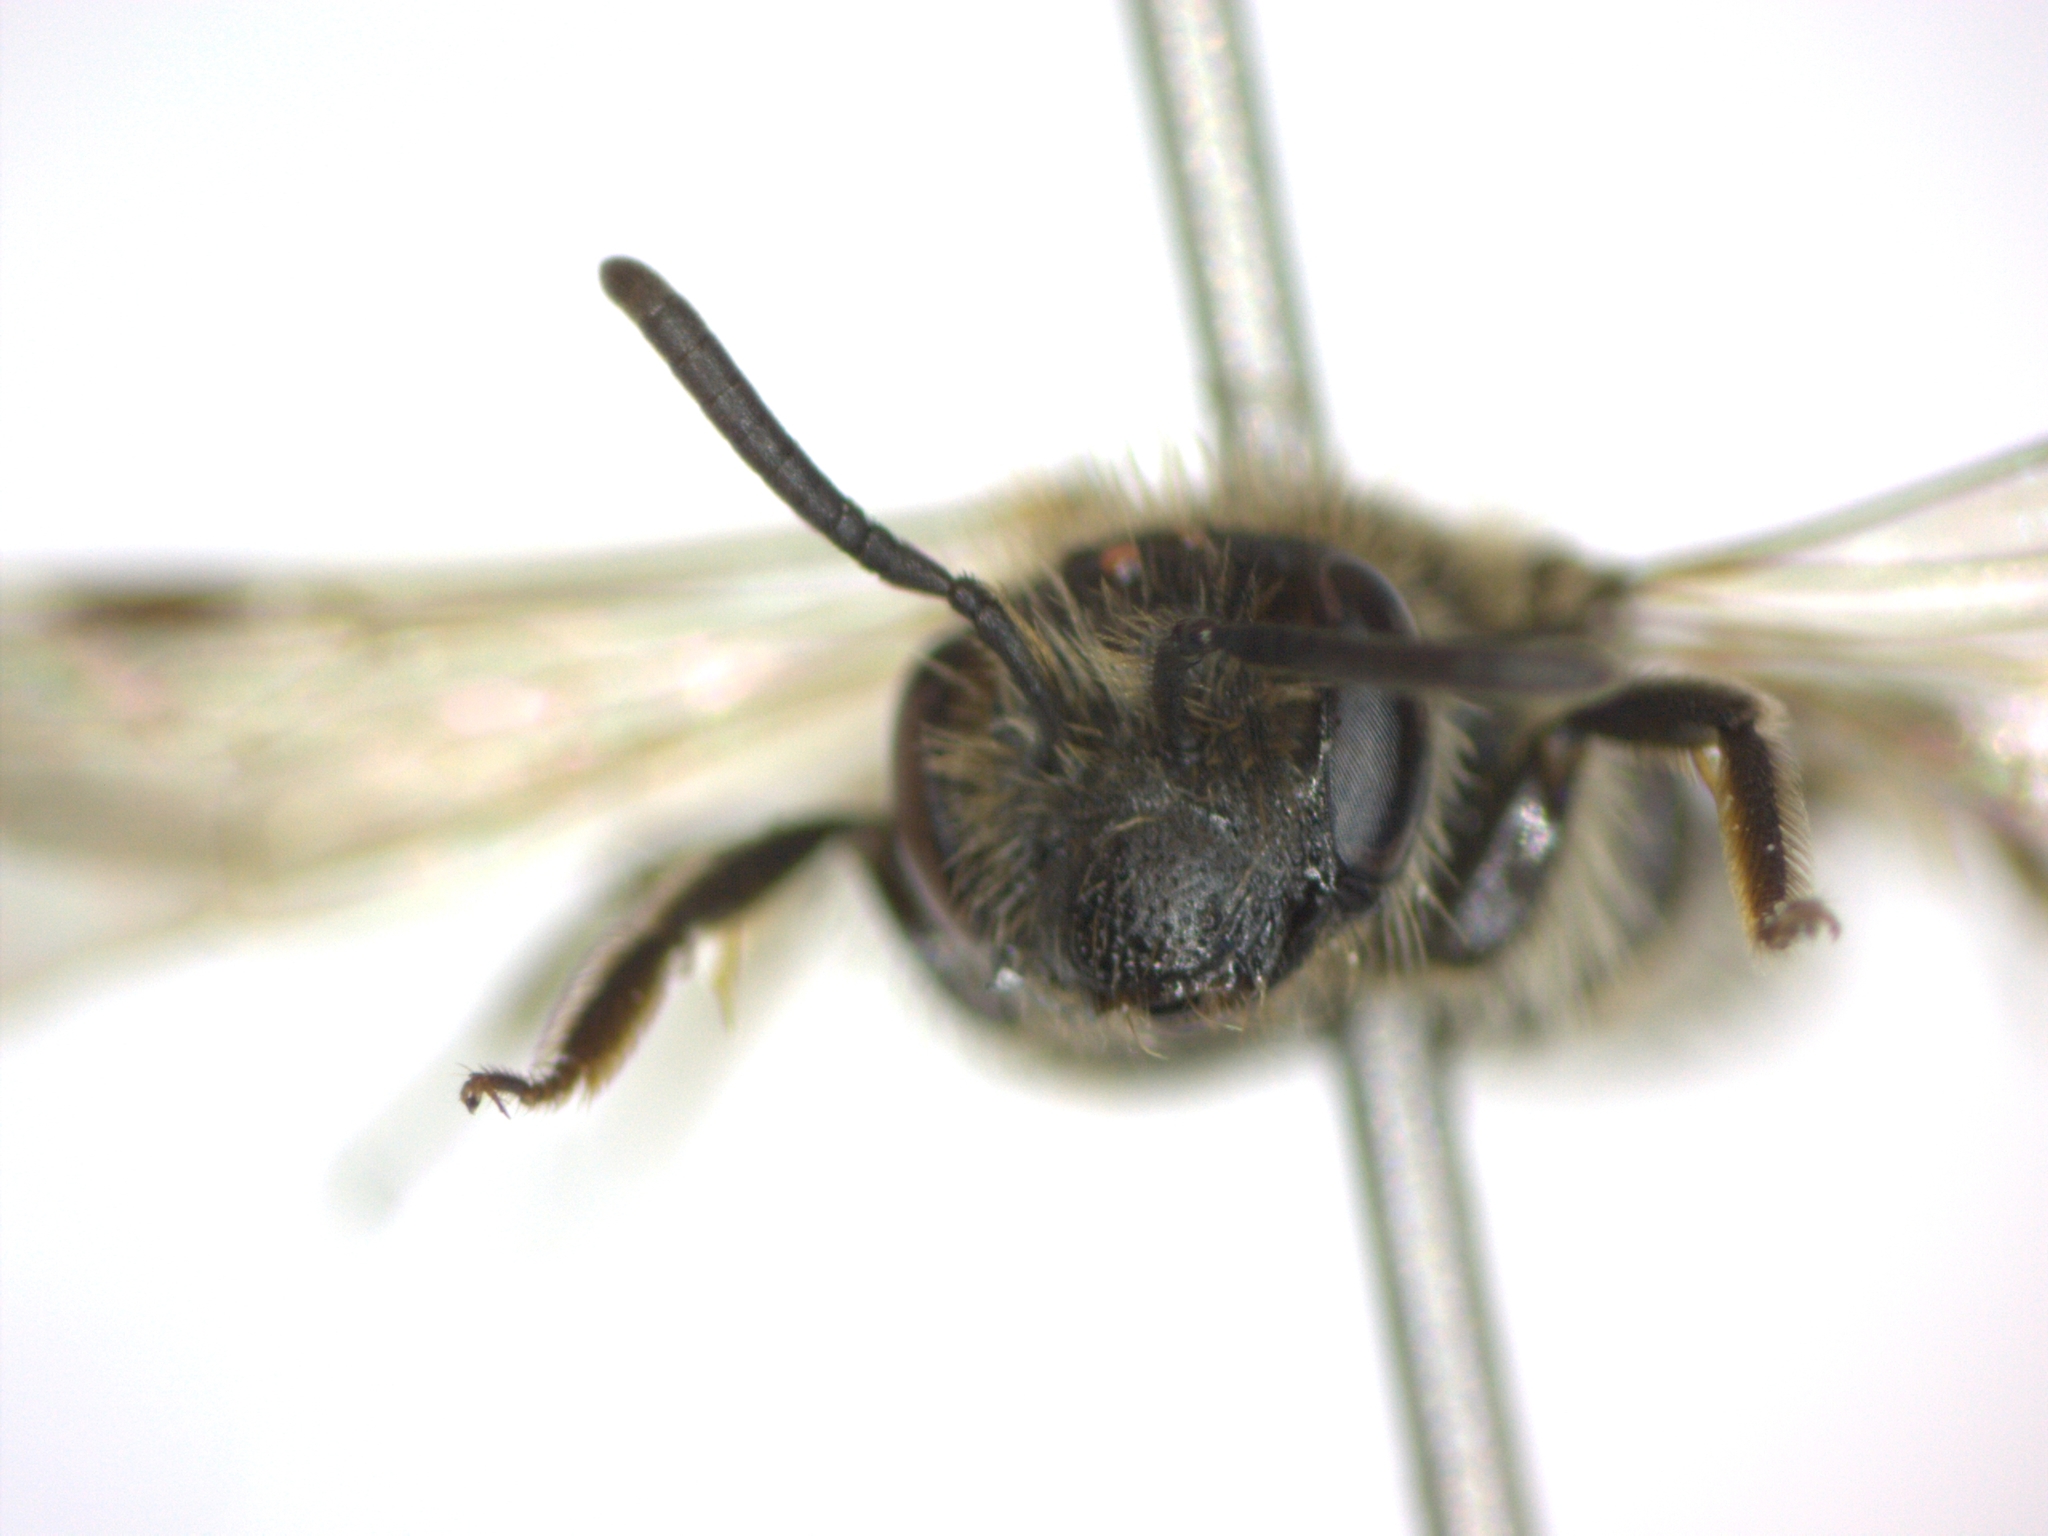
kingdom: Animalia
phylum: Arthropoda
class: Insecta
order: Hymenoptera
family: Andrenidae
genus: Andrena
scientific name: Andrena minutula
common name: Common mini-miner
